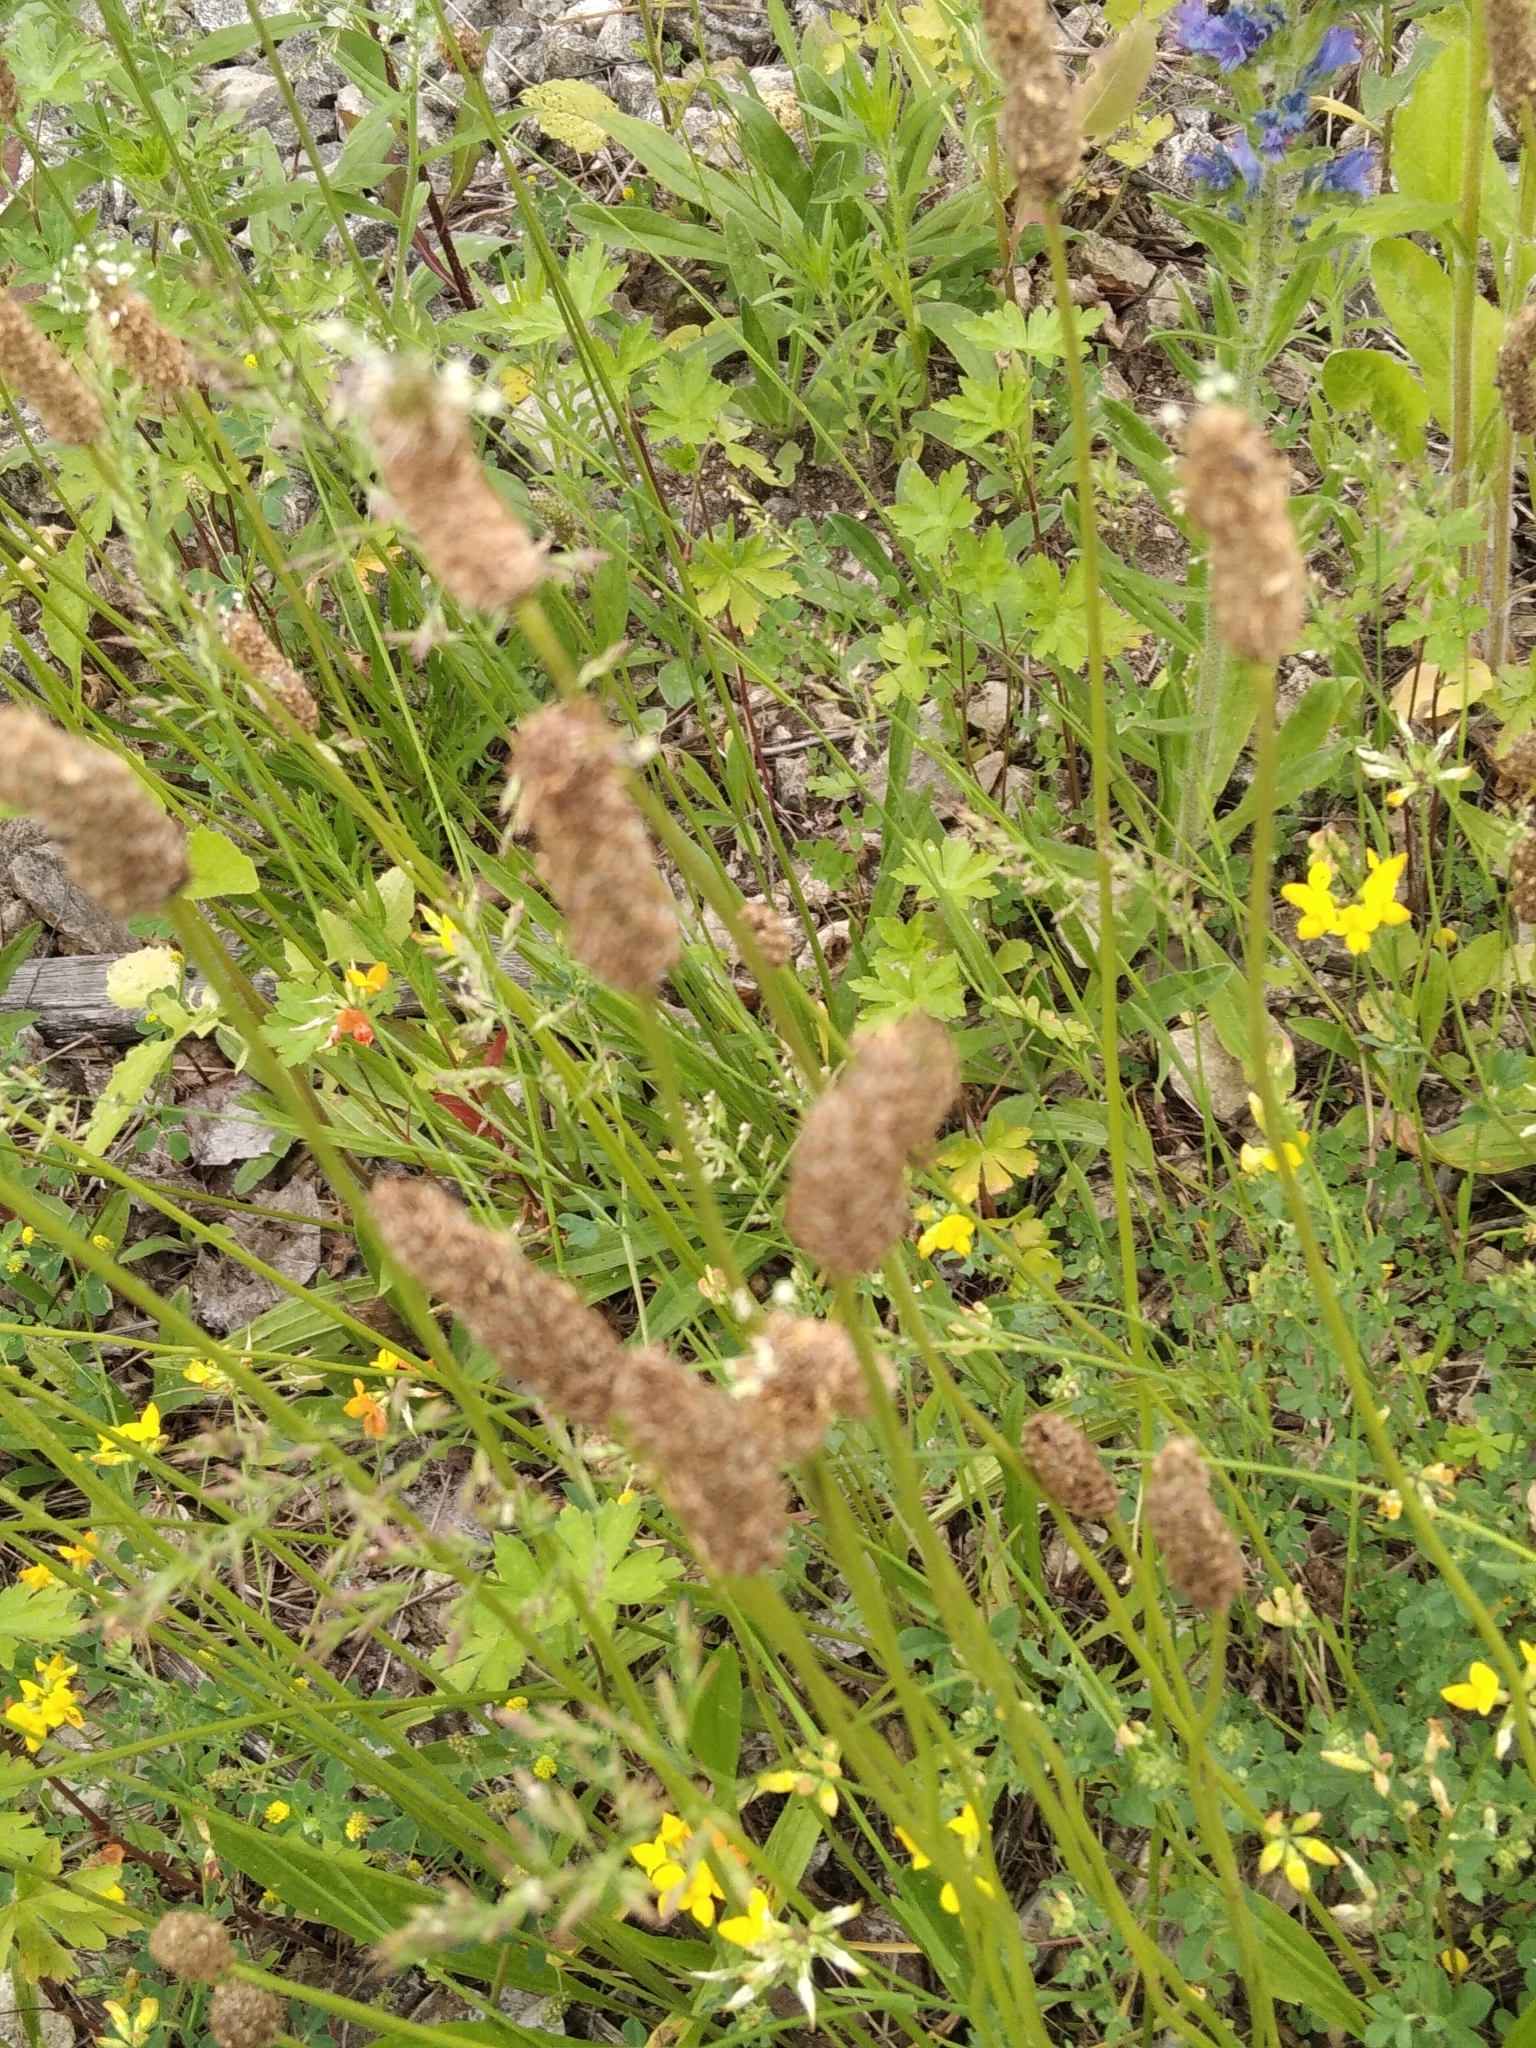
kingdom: Plantae
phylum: Tracheophyta
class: Magnoliopsida
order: Lamiales
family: Plantaginaceae
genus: Plantago
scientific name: Plantago lanceolata
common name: Ribwort plantain
